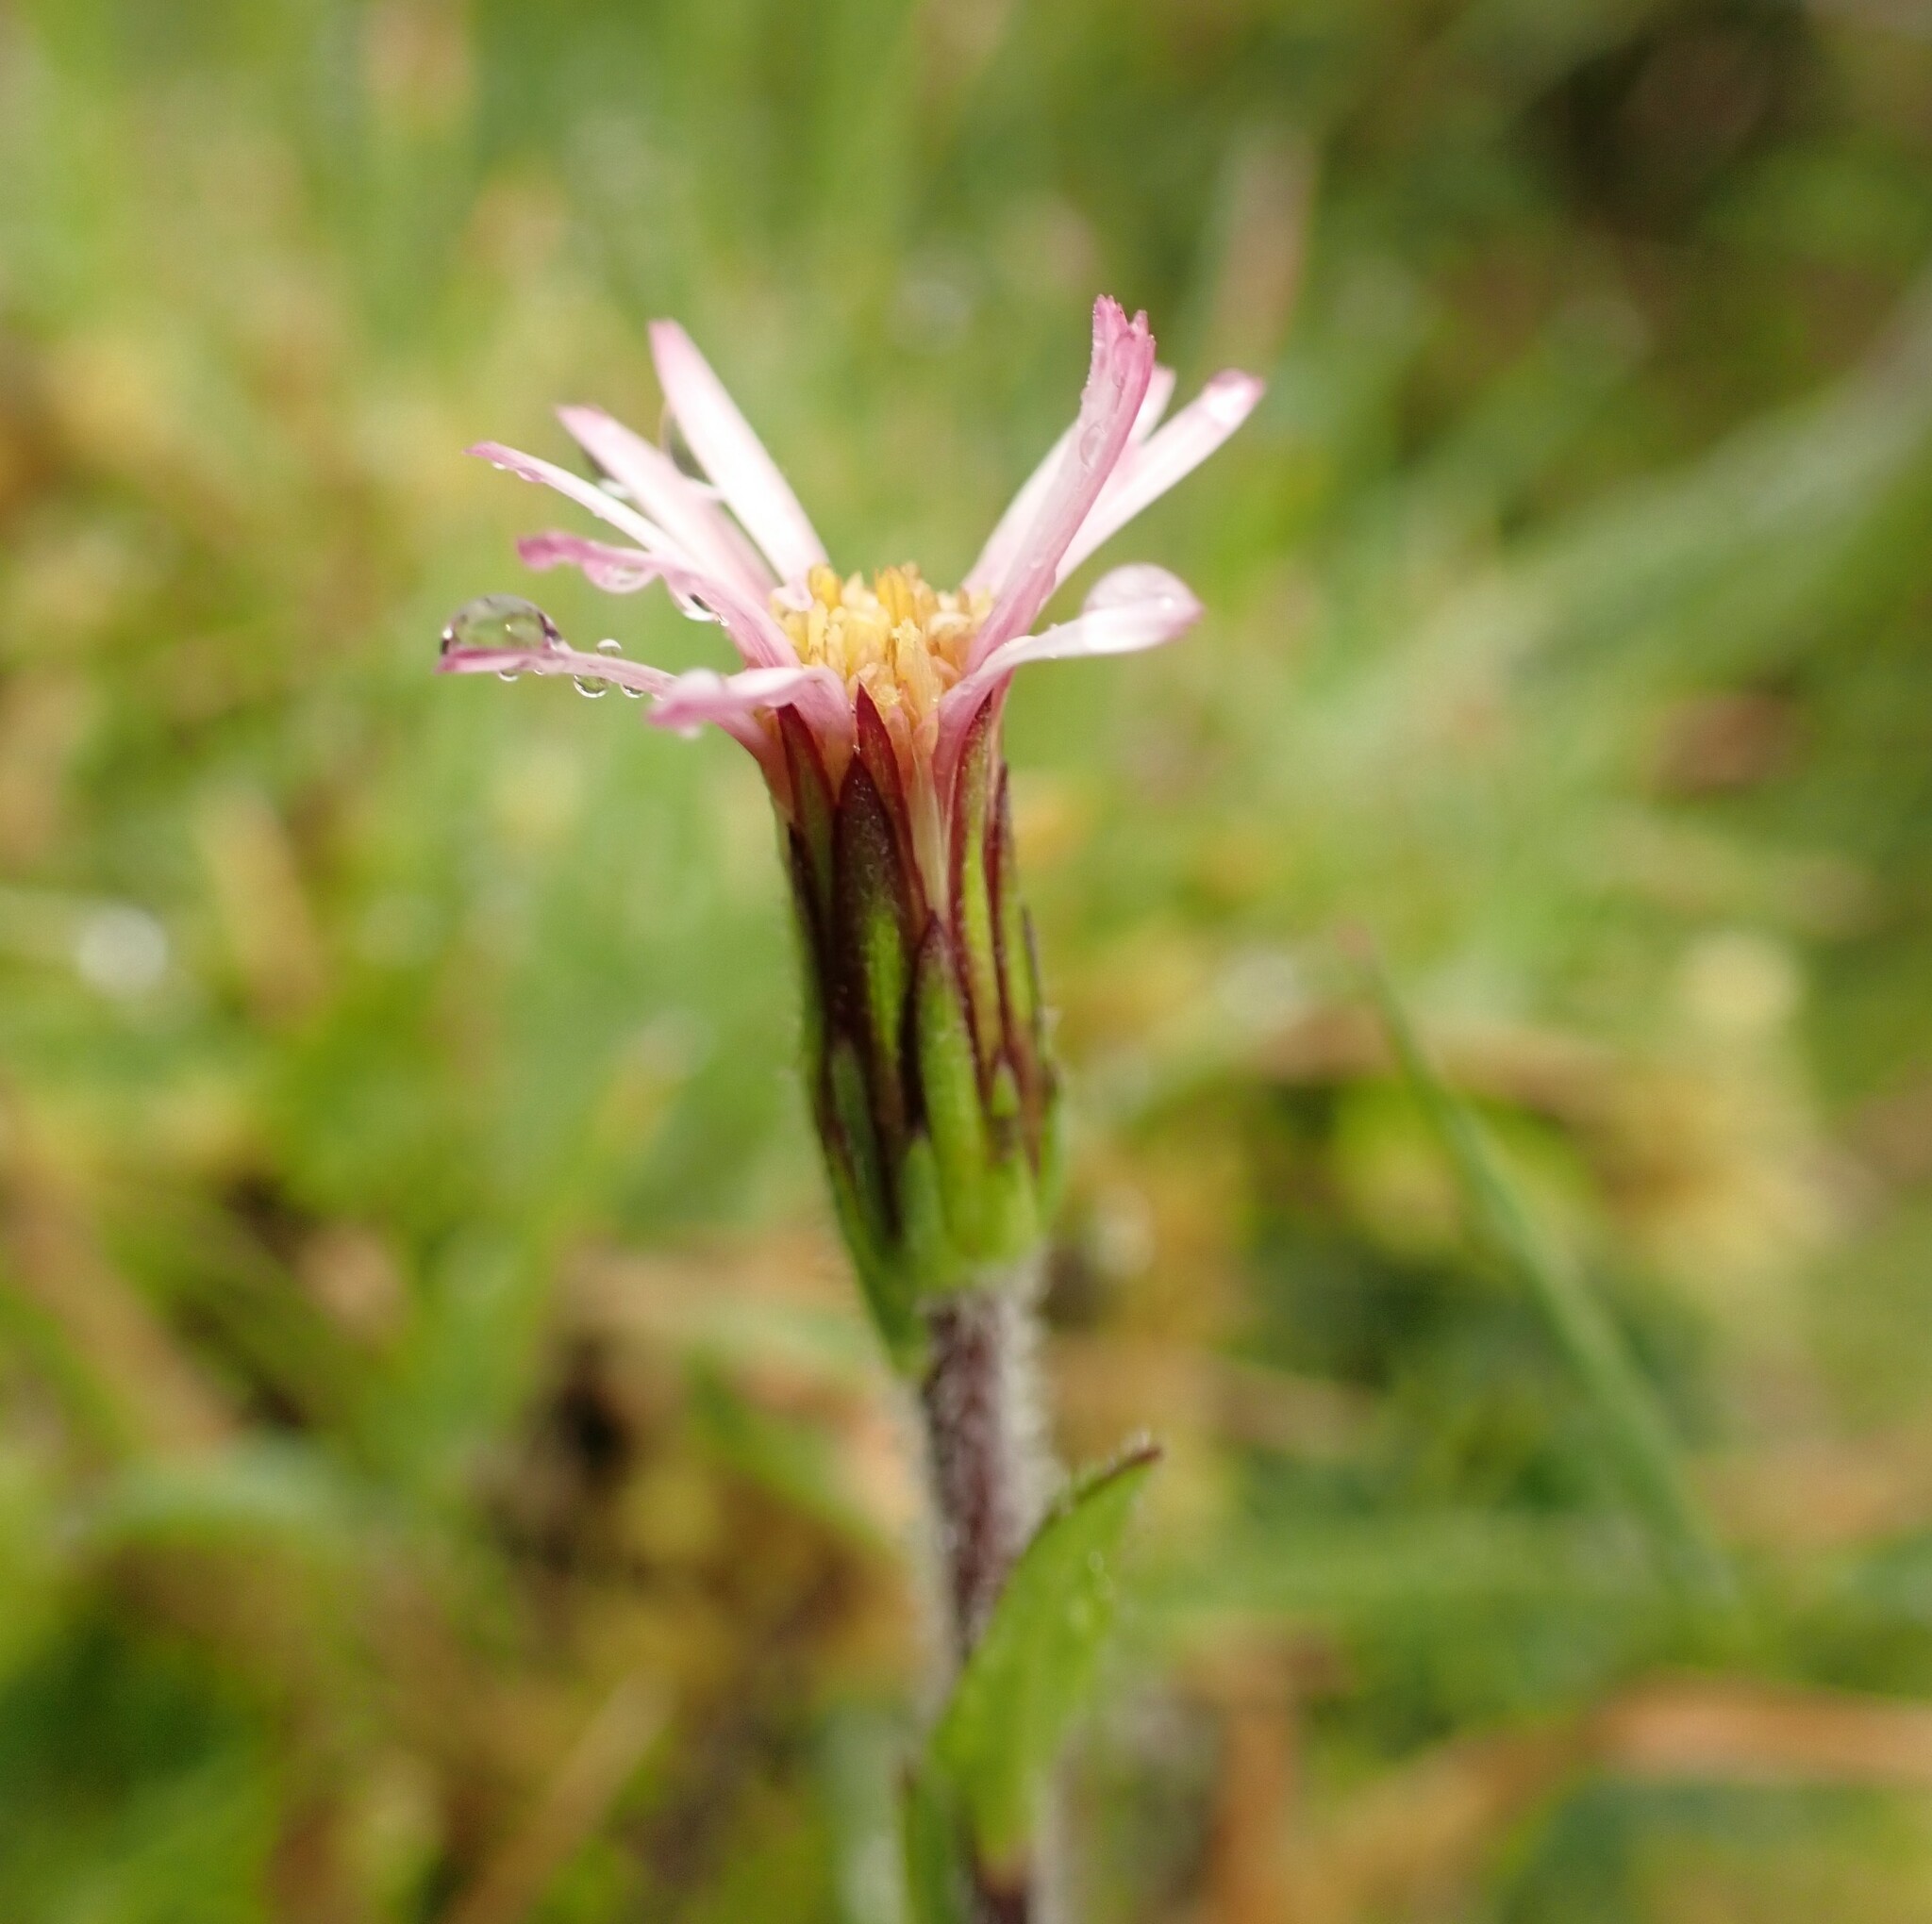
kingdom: Plantae
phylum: Tracheophyta
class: Magnoliopsida
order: Asterales
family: Asteraceae
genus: Noticastrum
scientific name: Noticastrum marginatum
